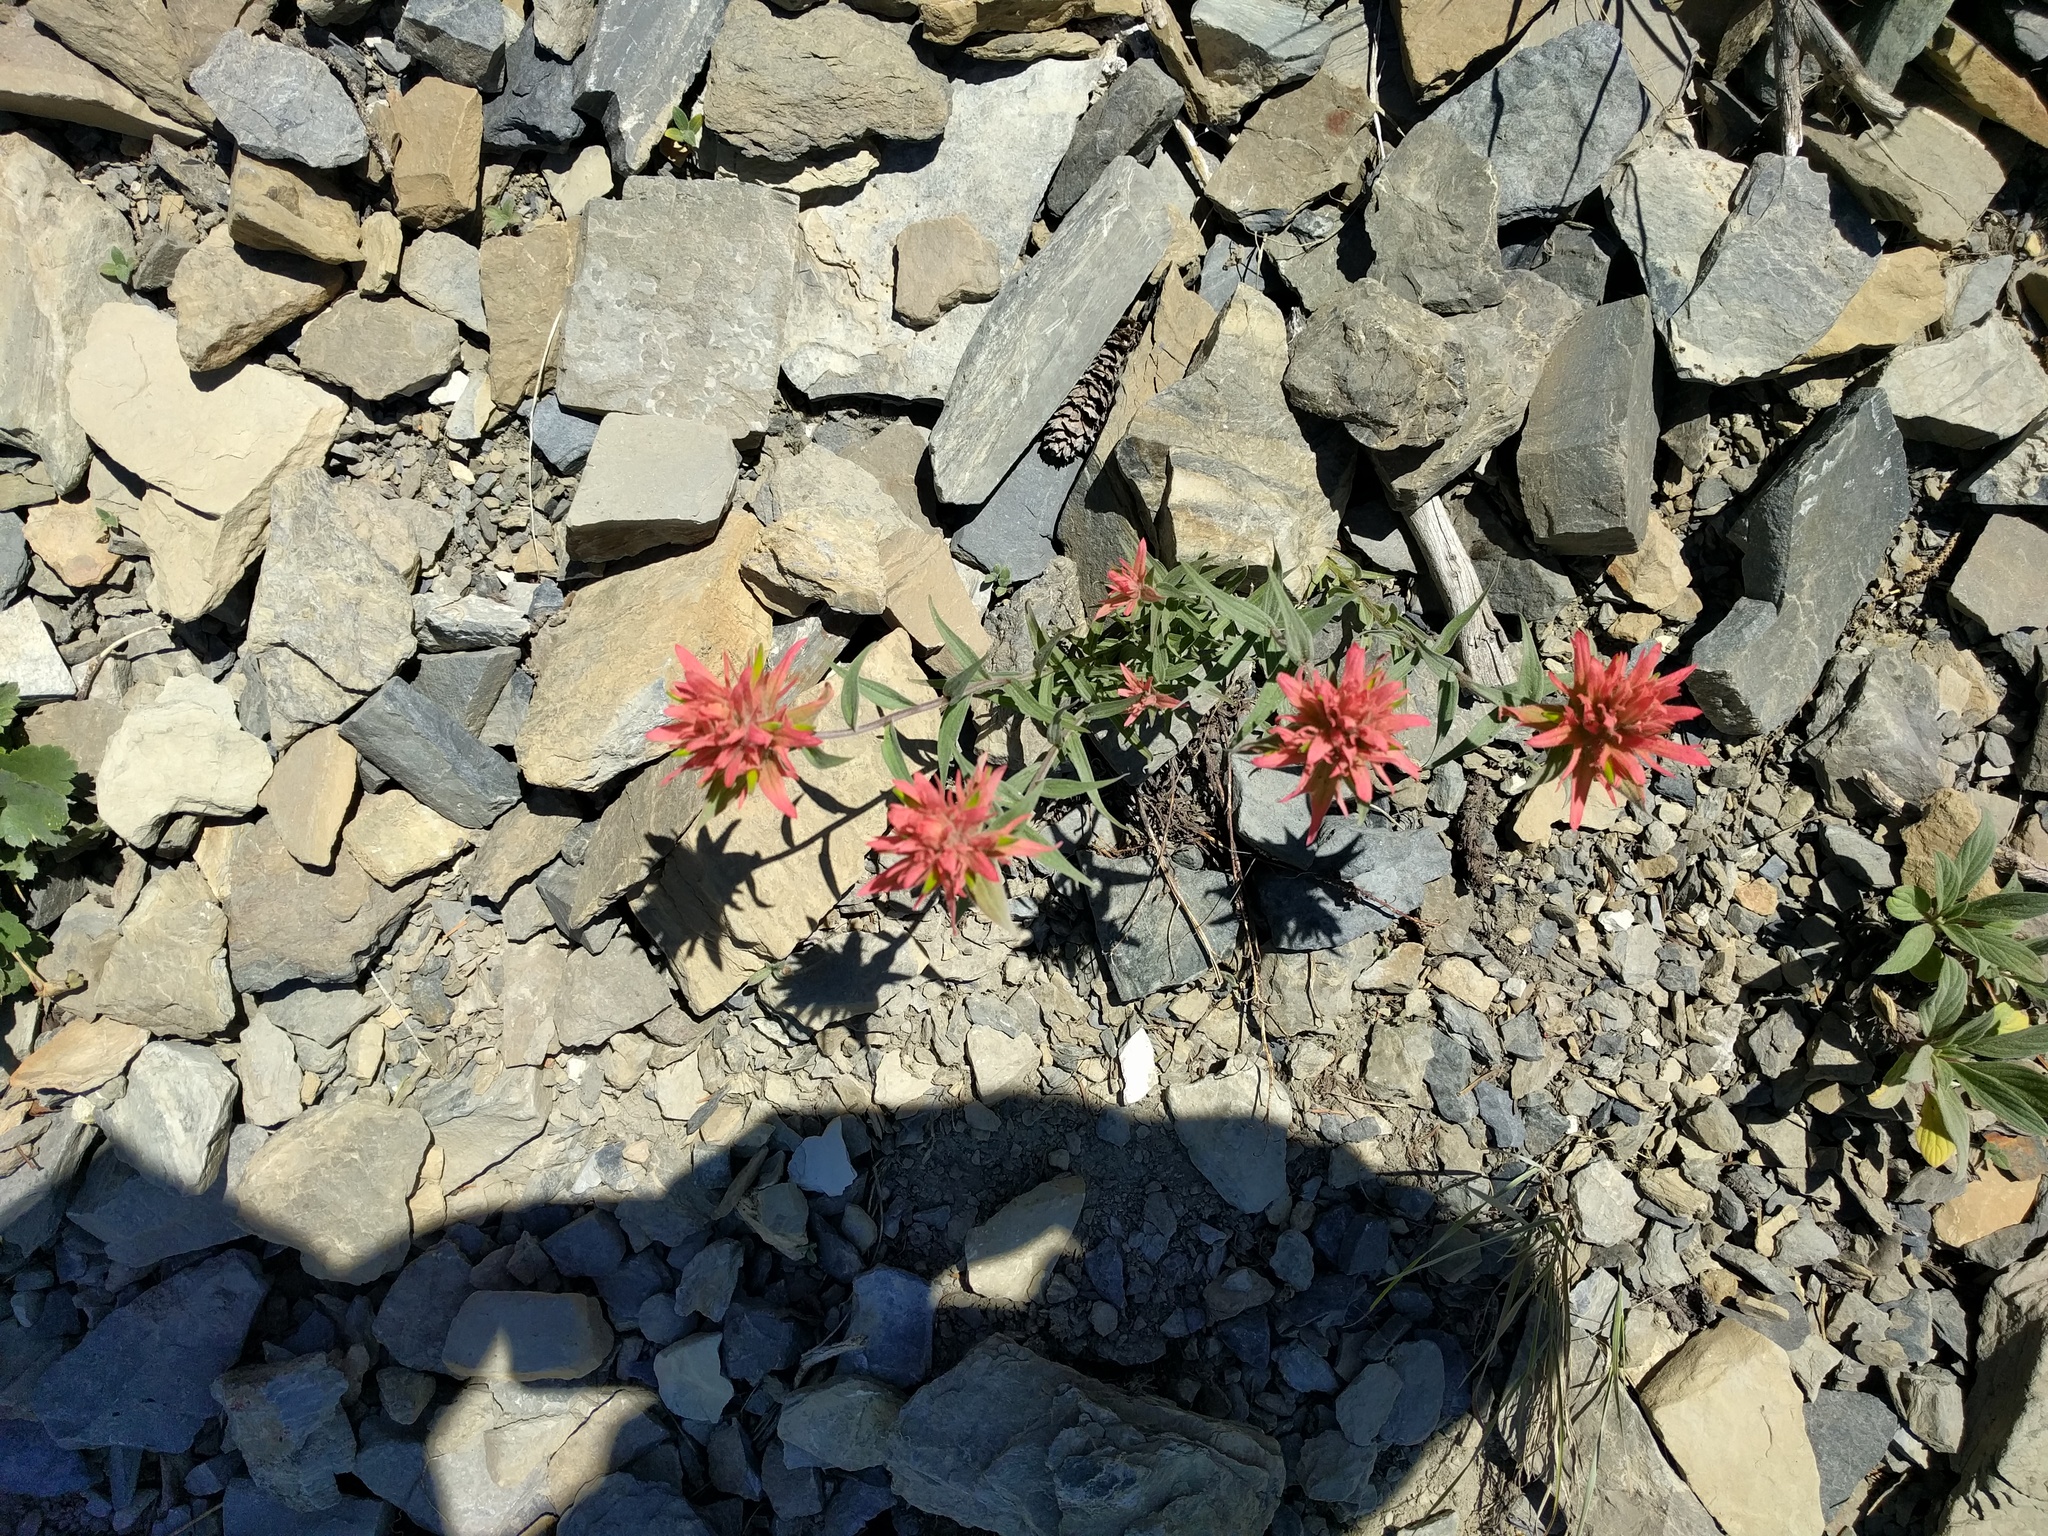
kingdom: Plantae
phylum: Tracheophyta
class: Magnoliopsida
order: Lamiales
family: Orobanchaceae
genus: Castilleja
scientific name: Castilleja miniata
